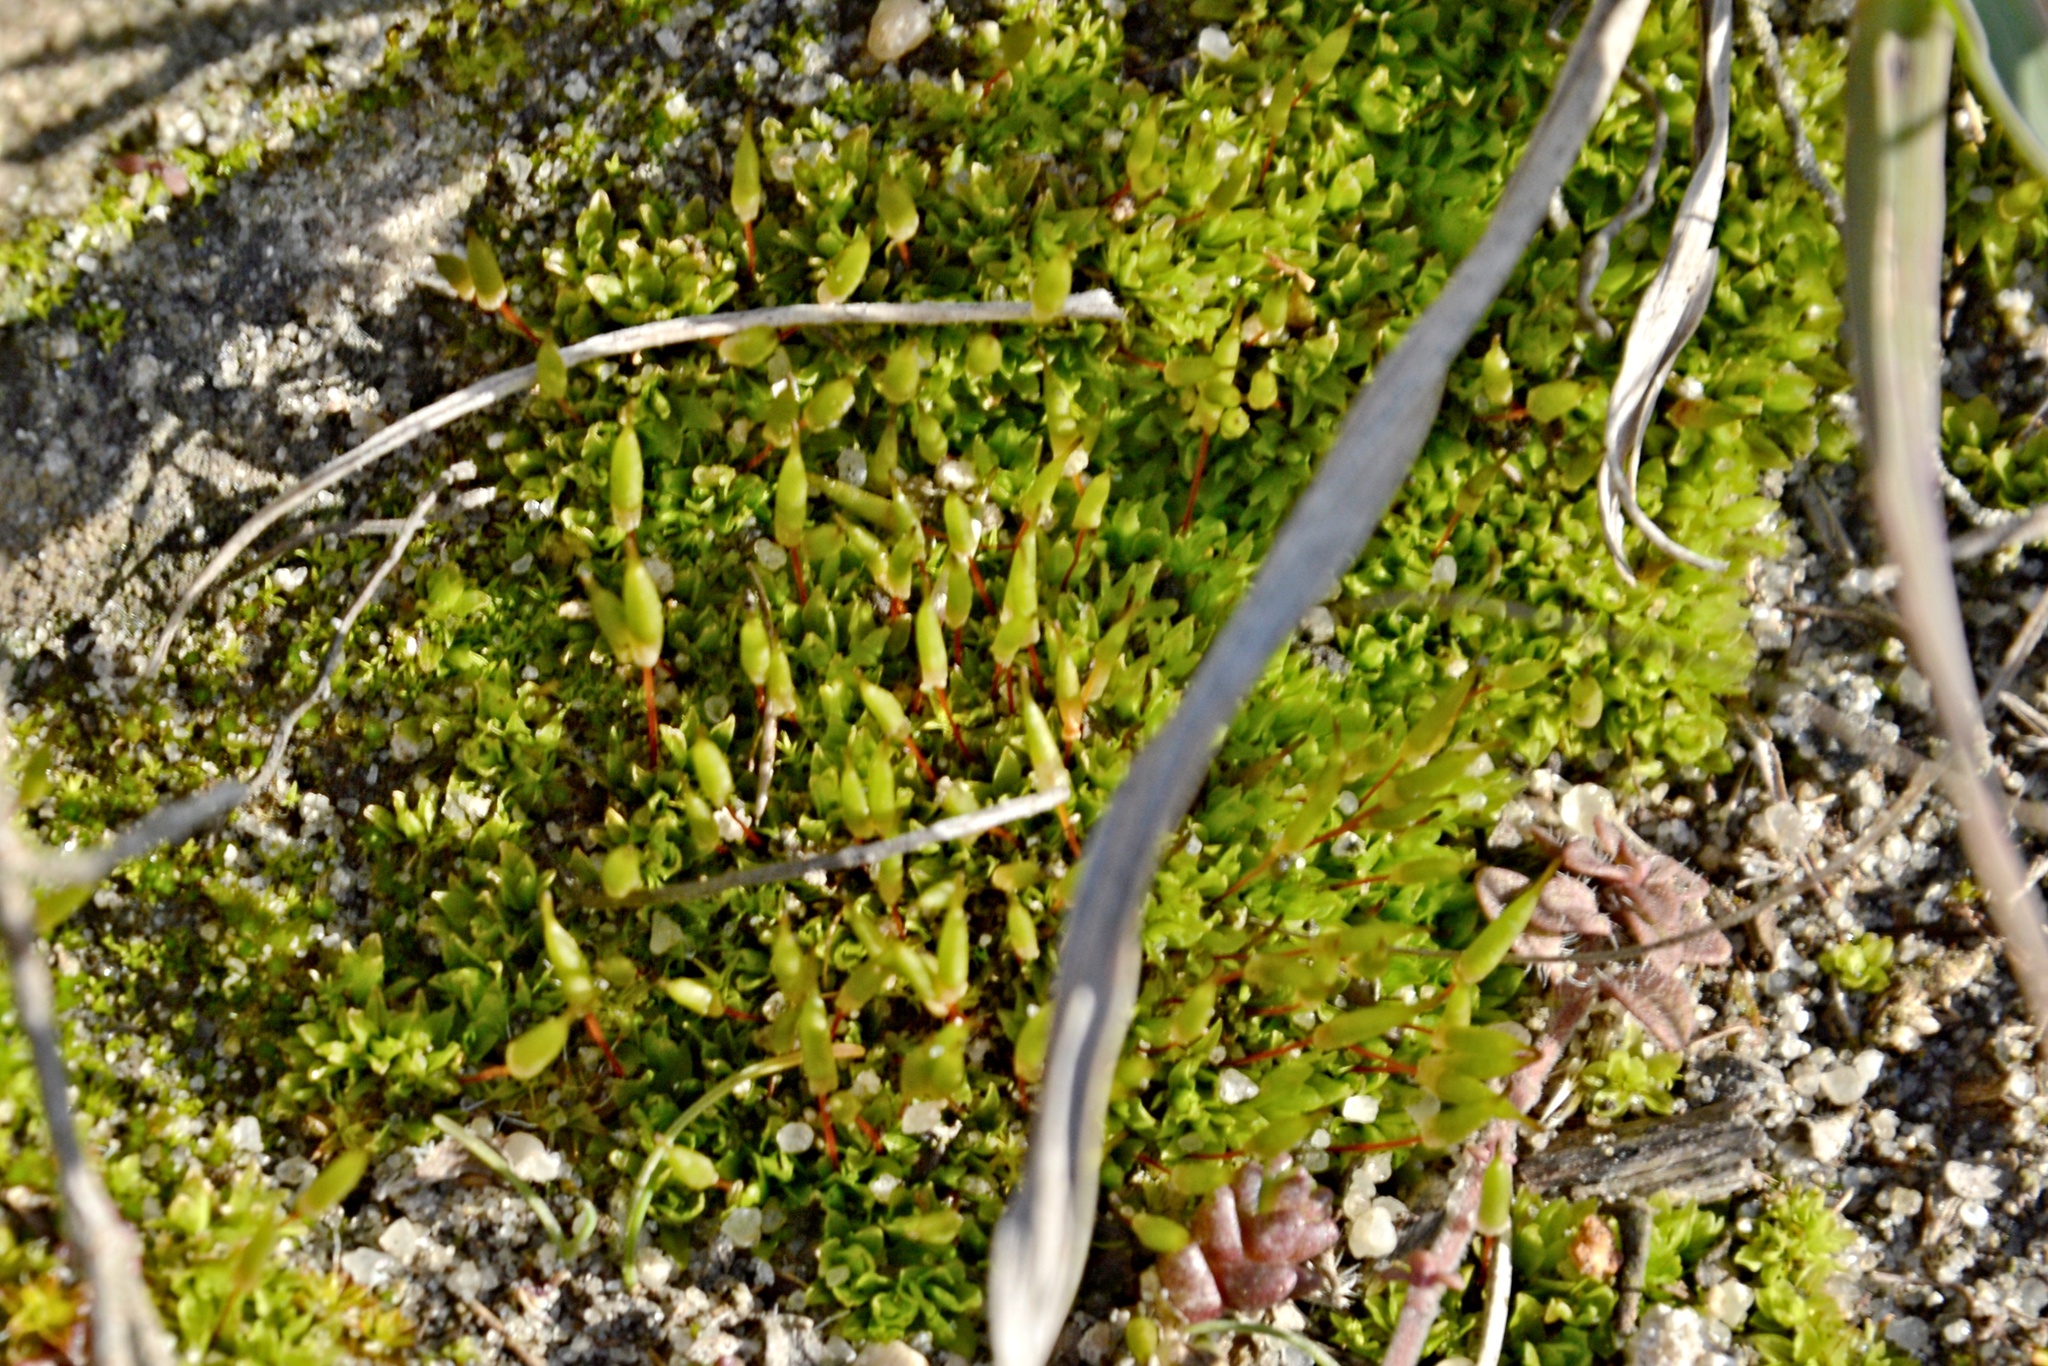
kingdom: Plantae
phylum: Bryophyta
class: Bryopsida
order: Encalyptales
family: Encalyptaceae
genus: Encalypta
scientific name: Encalypta vulgaris
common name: Common extinguisher-moss
